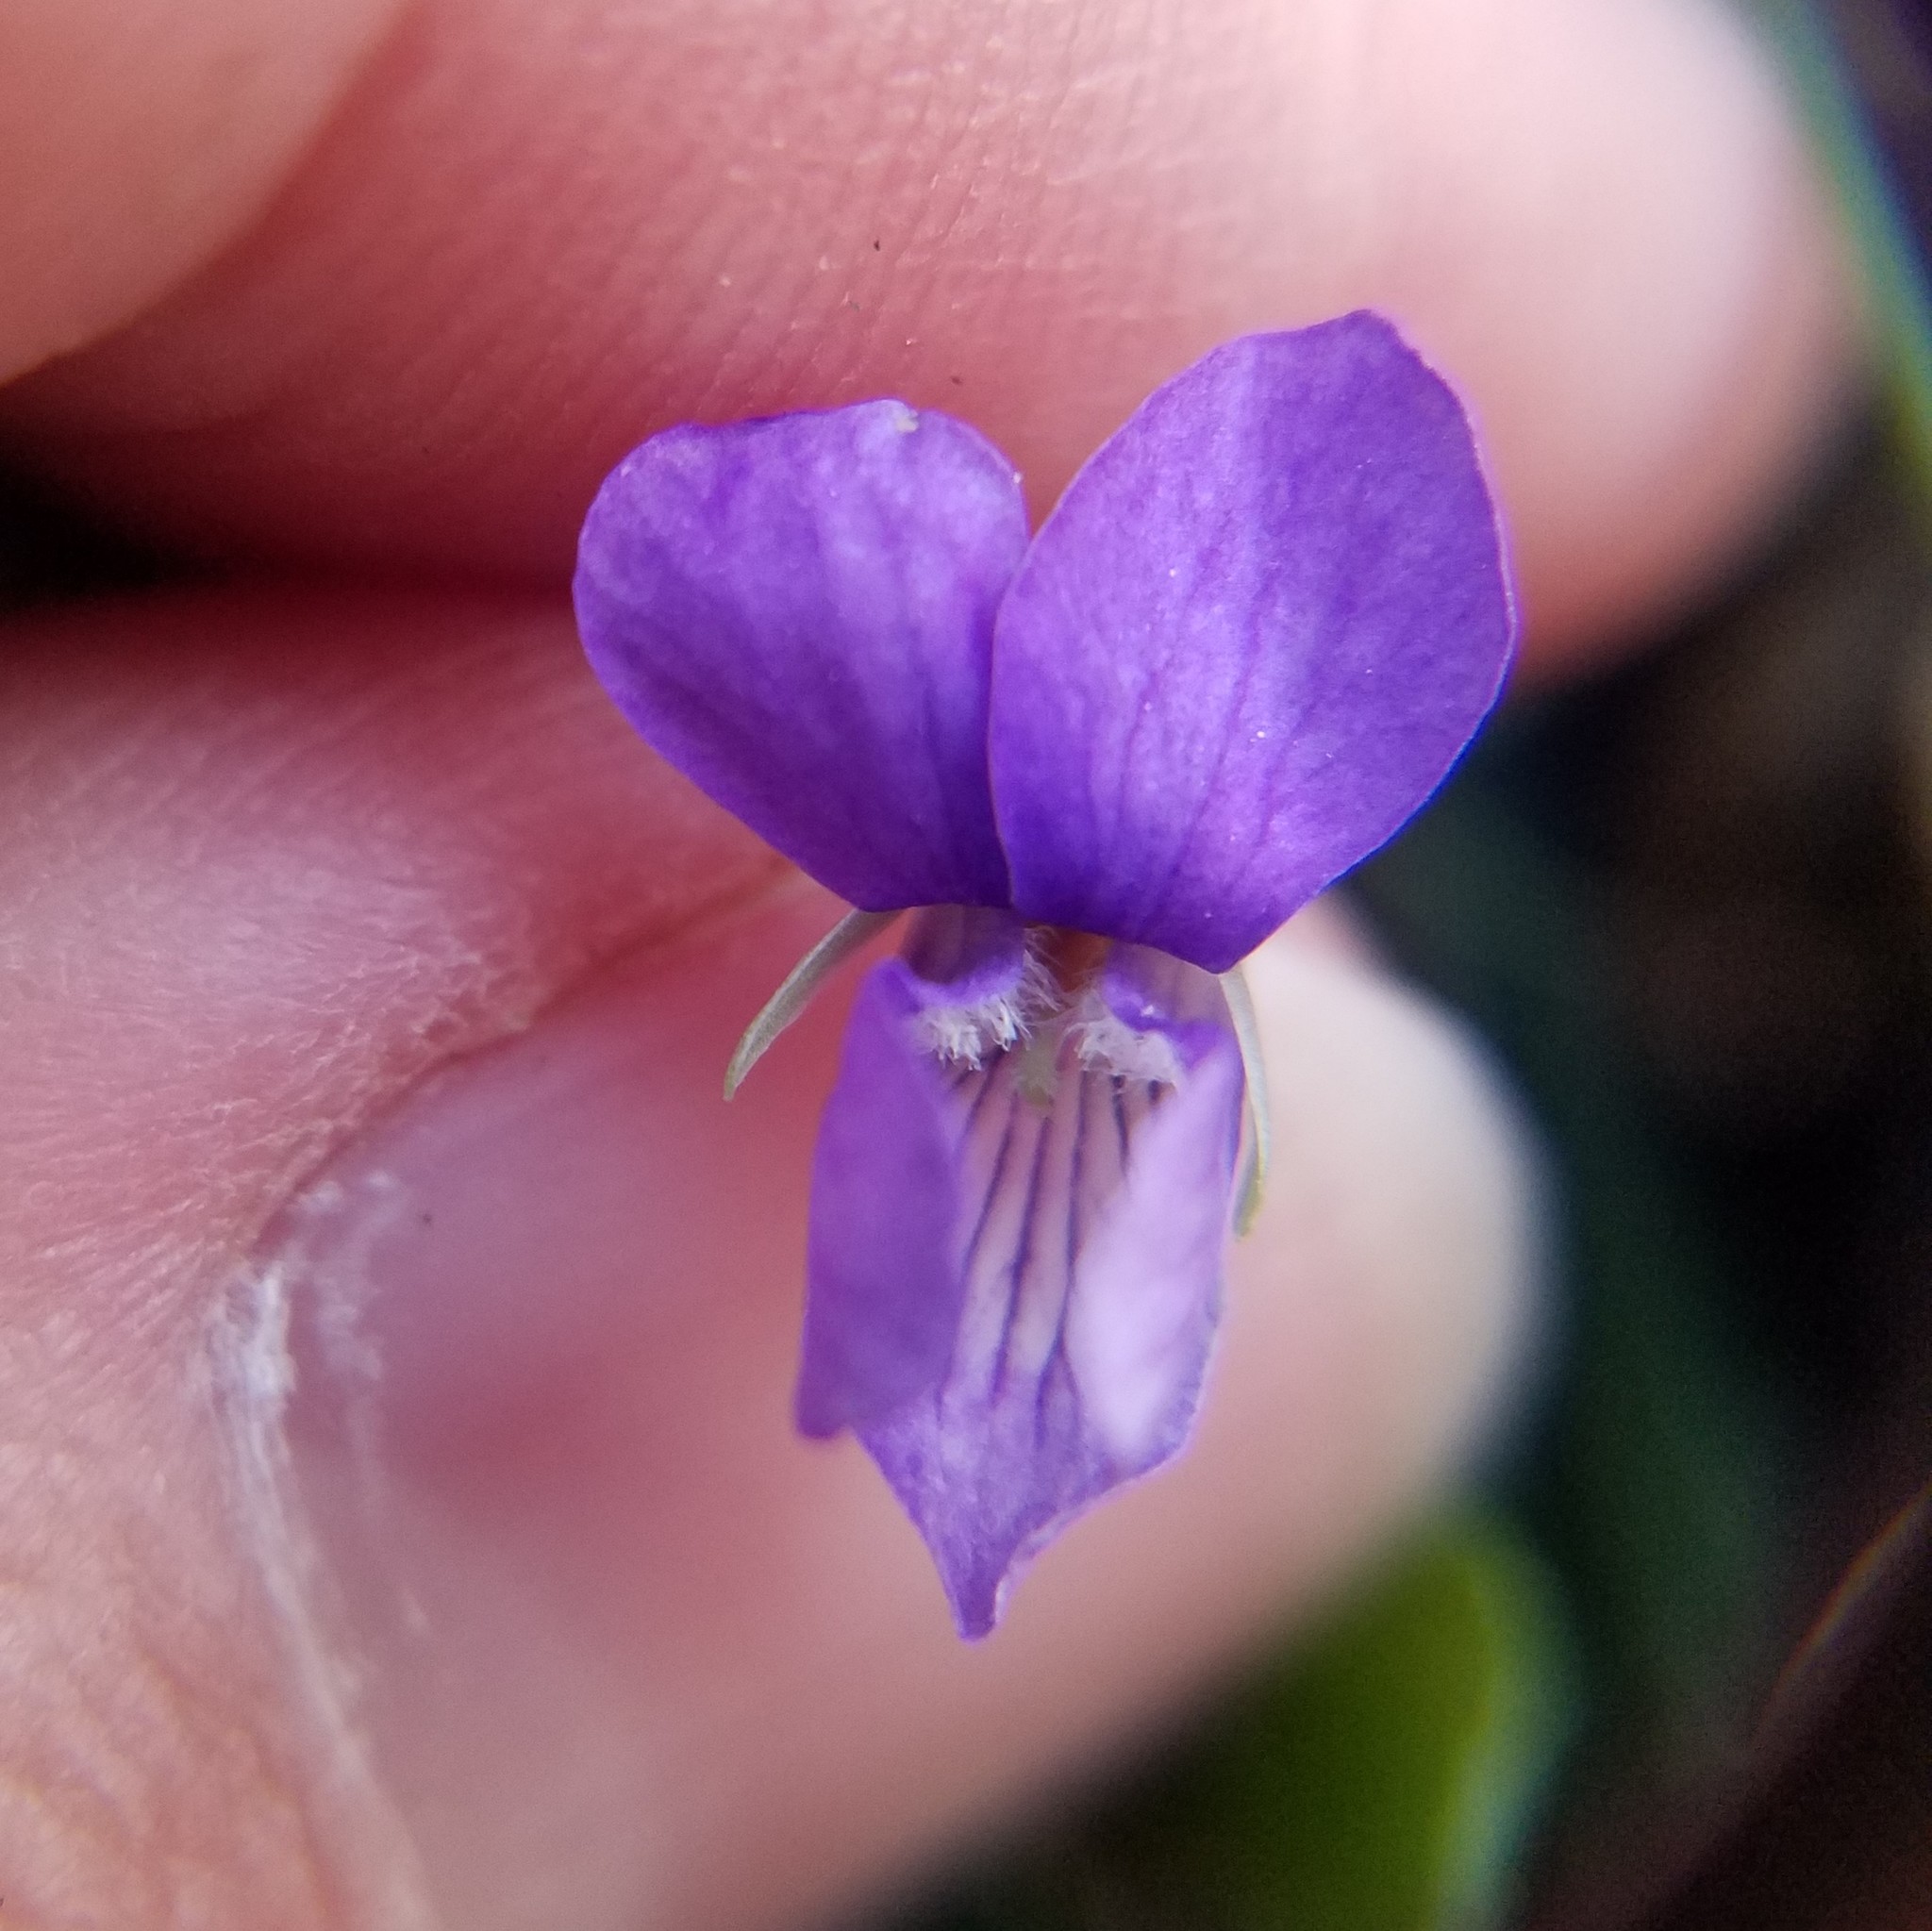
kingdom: Plantae
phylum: Tracheophyta
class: Magnoliopsida
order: Malpighiales
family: Violaceae
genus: Viola
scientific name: Viola walteri
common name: Prostrate southern violet
